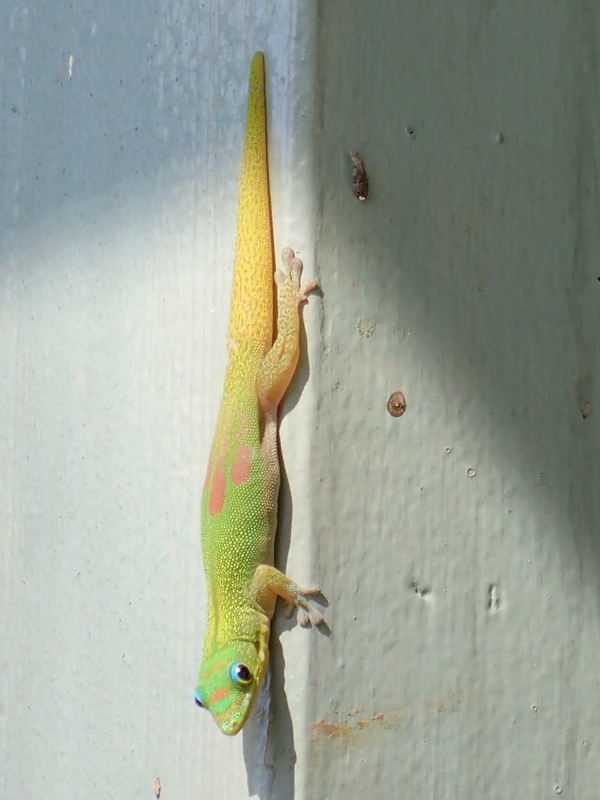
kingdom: Animalia
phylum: Chordata
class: Squamata
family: Gekkonidae
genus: Phelsuma
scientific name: Phelsuma laticauda
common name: Gold dust day gecko
